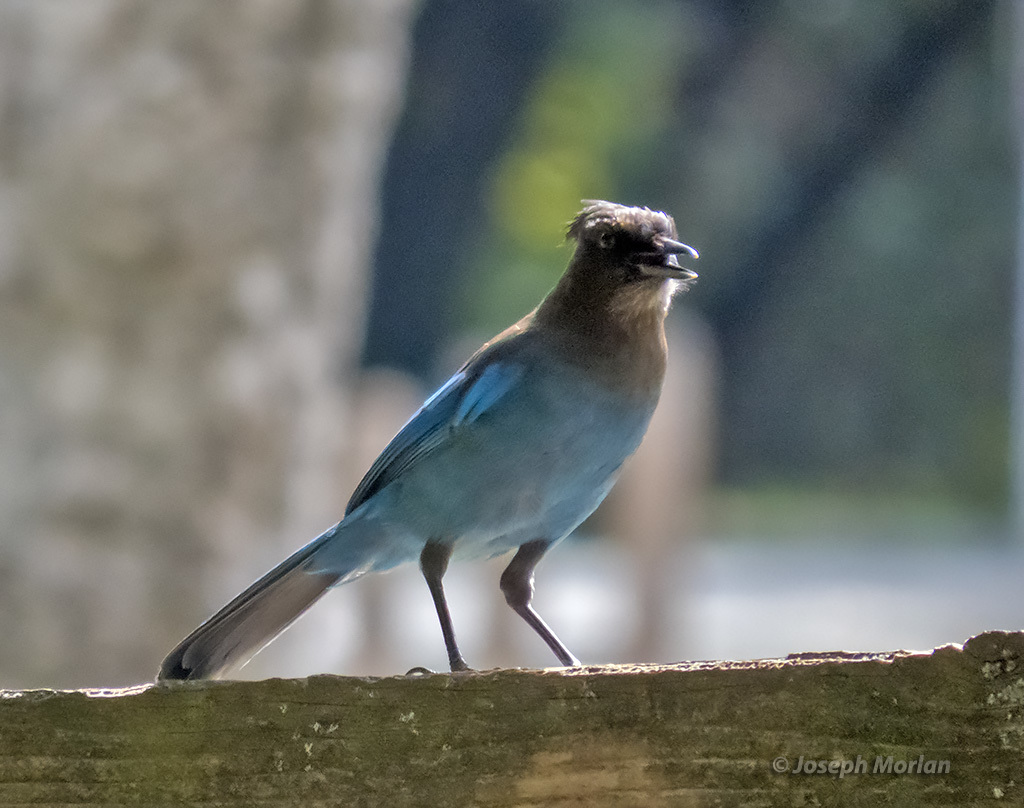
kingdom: Animalia
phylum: Chordata
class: Aves
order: Passeriformes
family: Corvidae
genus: Cyanocitta
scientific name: Cyanocitta stelleri
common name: Steller's jay
